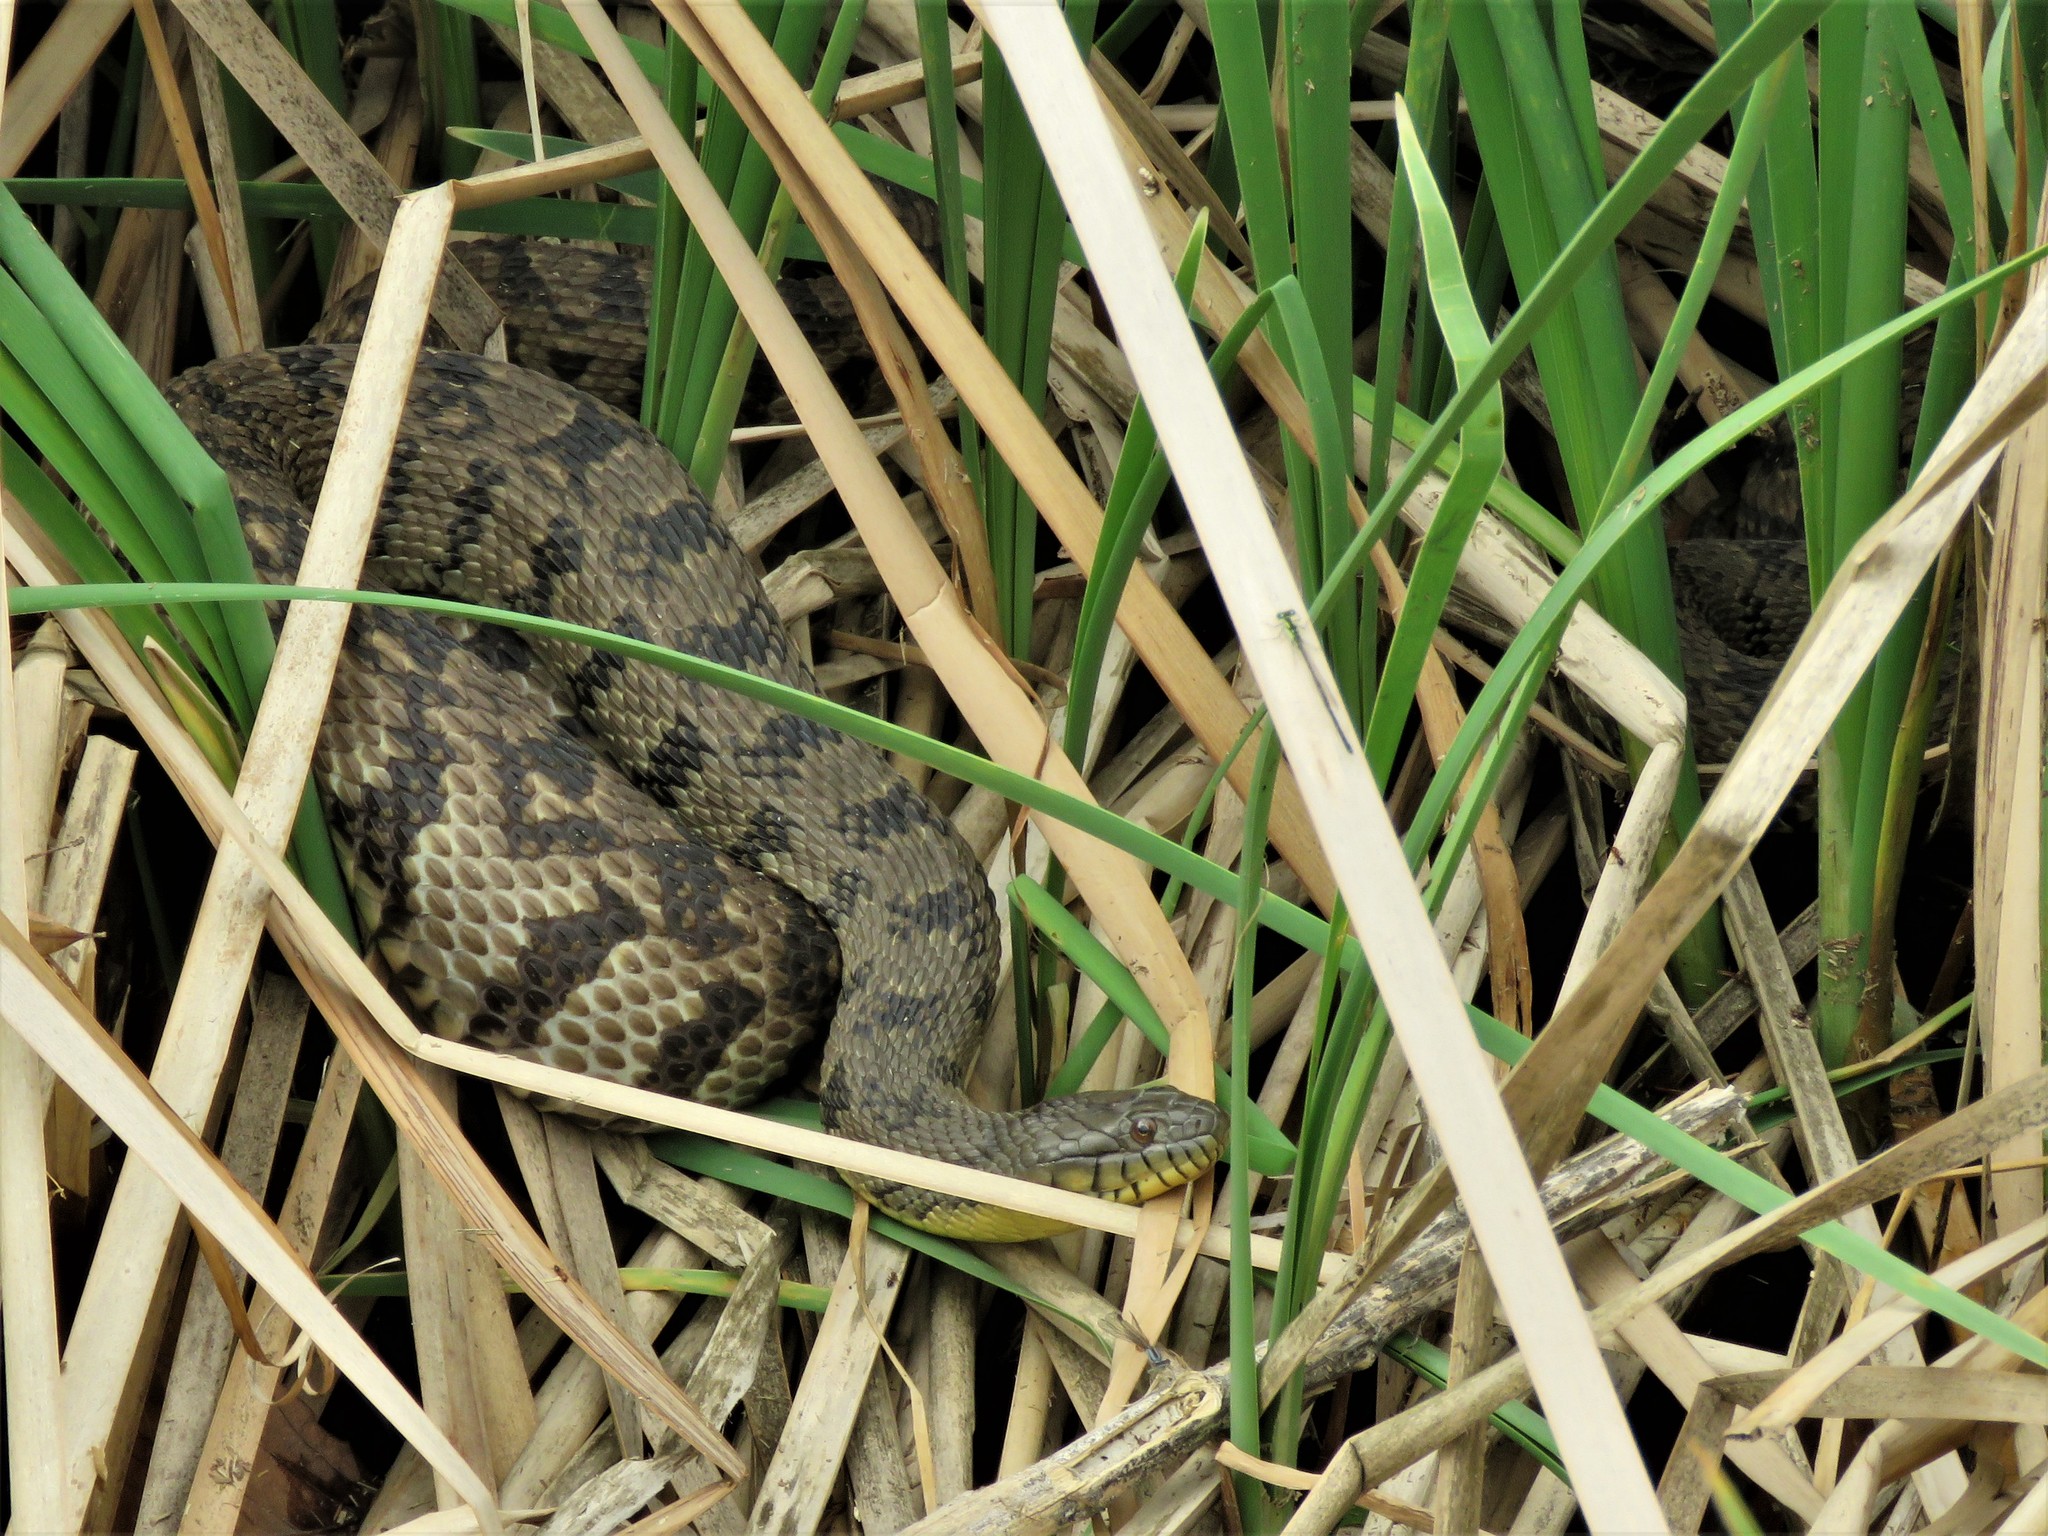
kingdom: Animalia
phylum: Chordata
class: Squamata
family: Colubridae
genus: Nerodia
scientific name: Nerodia rhombifer
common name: Diamondback water snake
